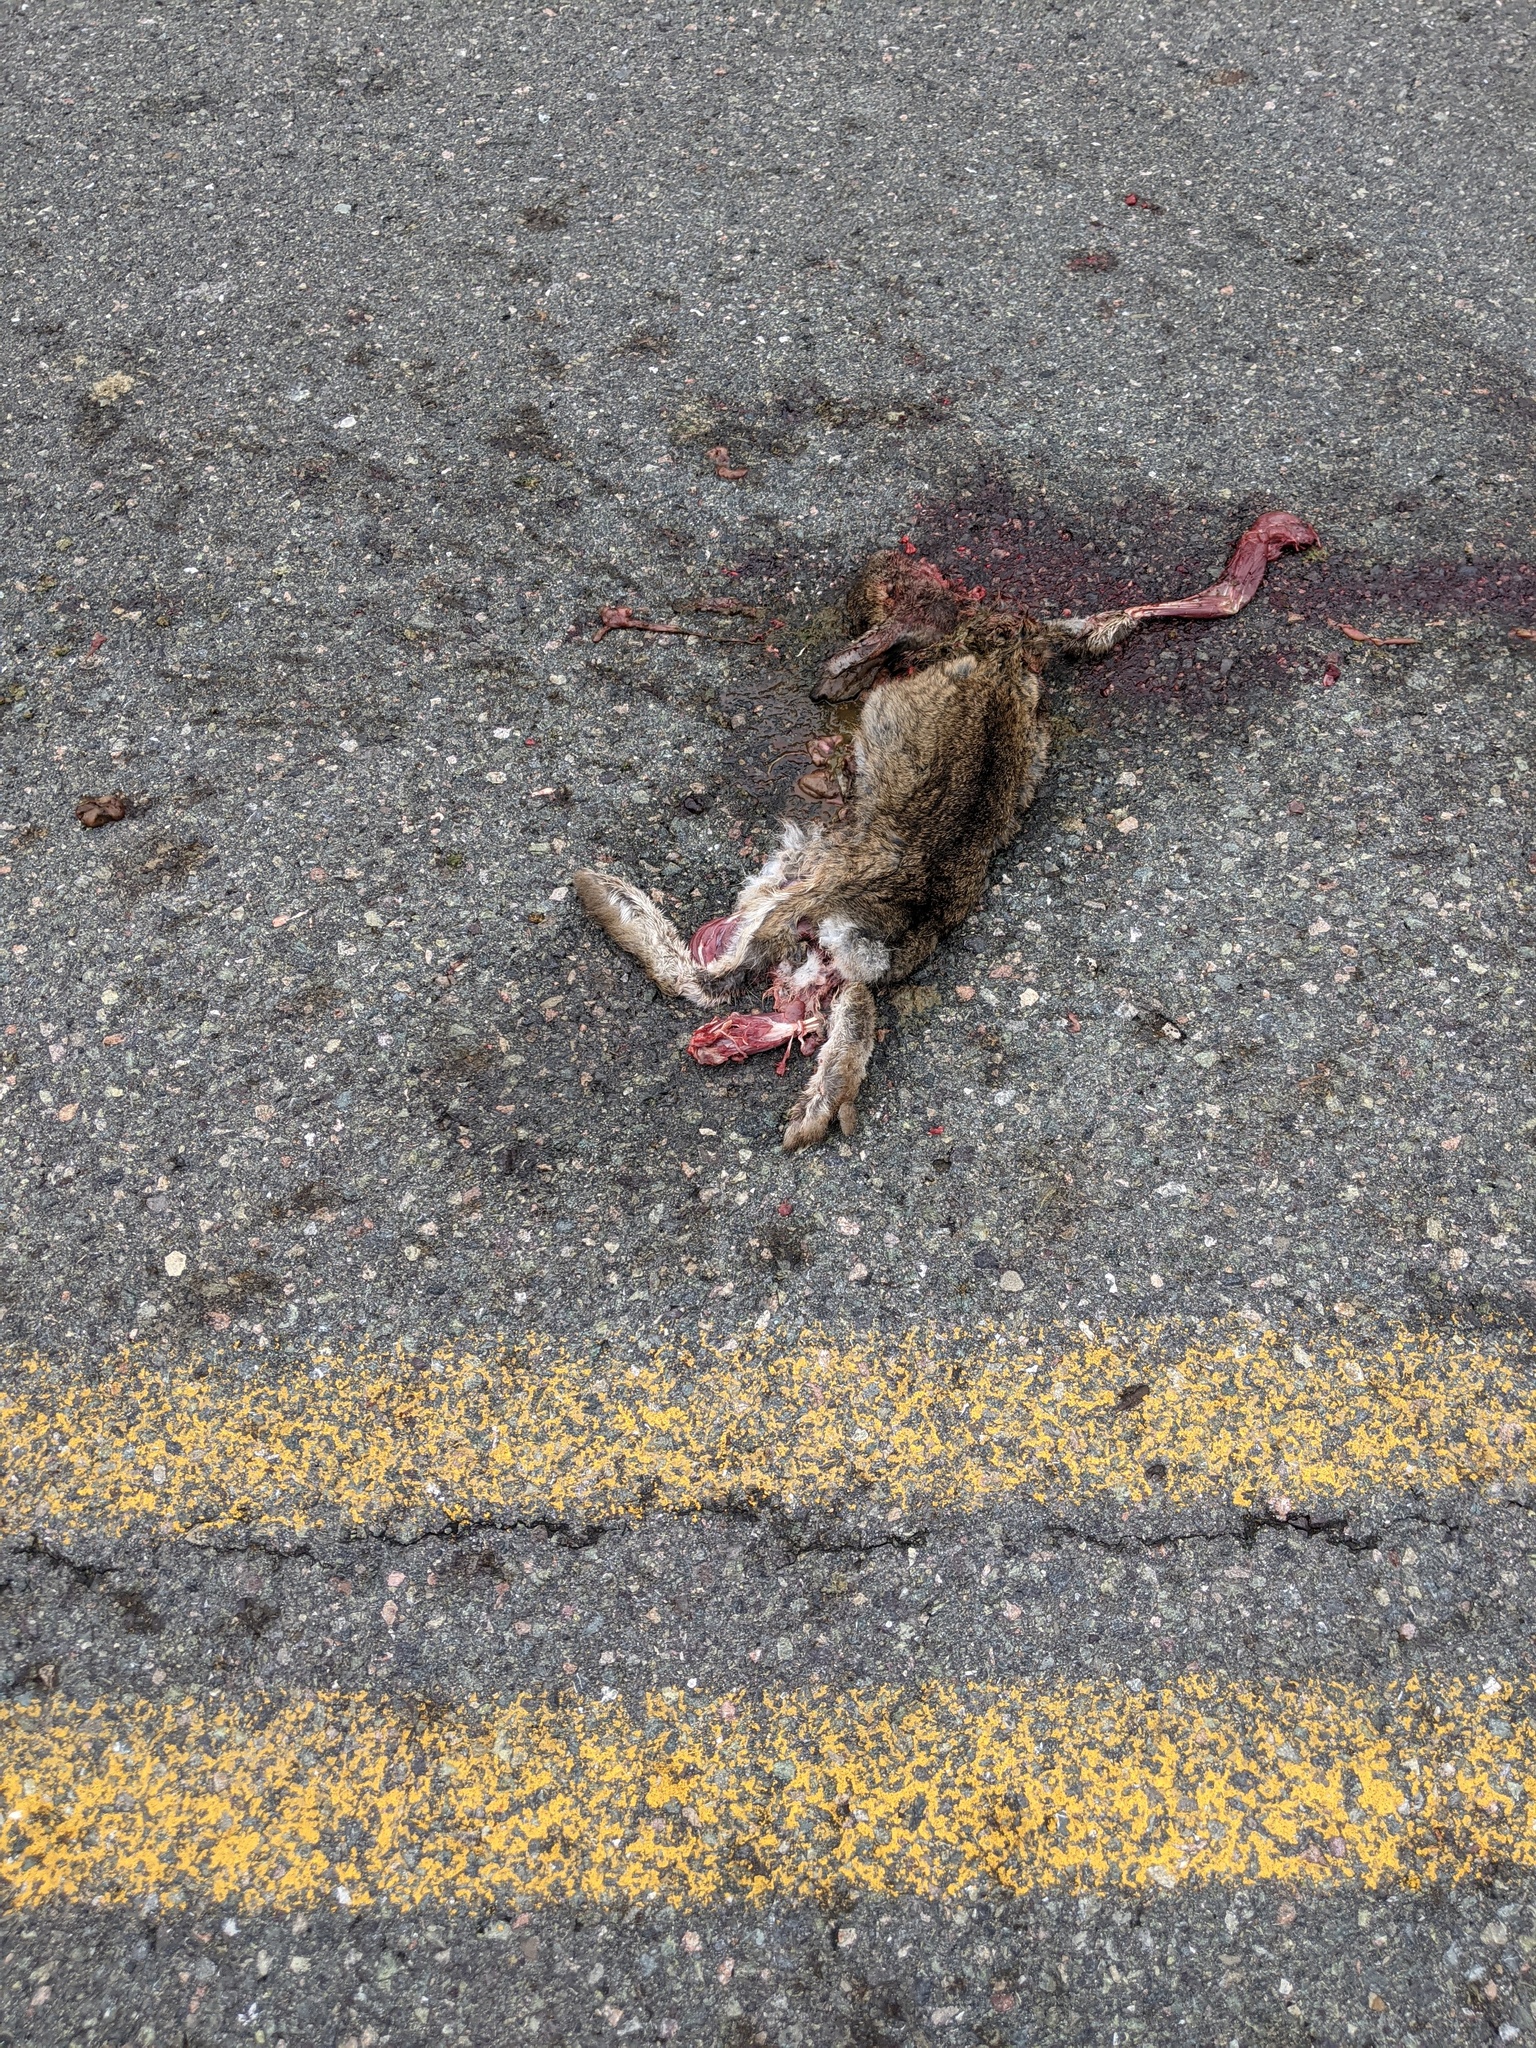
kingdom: Animalia
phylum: Chordata
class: Mammalia
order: Lagomorpha
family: Leporidae
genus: Lepus
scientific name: Lepus americanus
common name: Snowshoe hare
